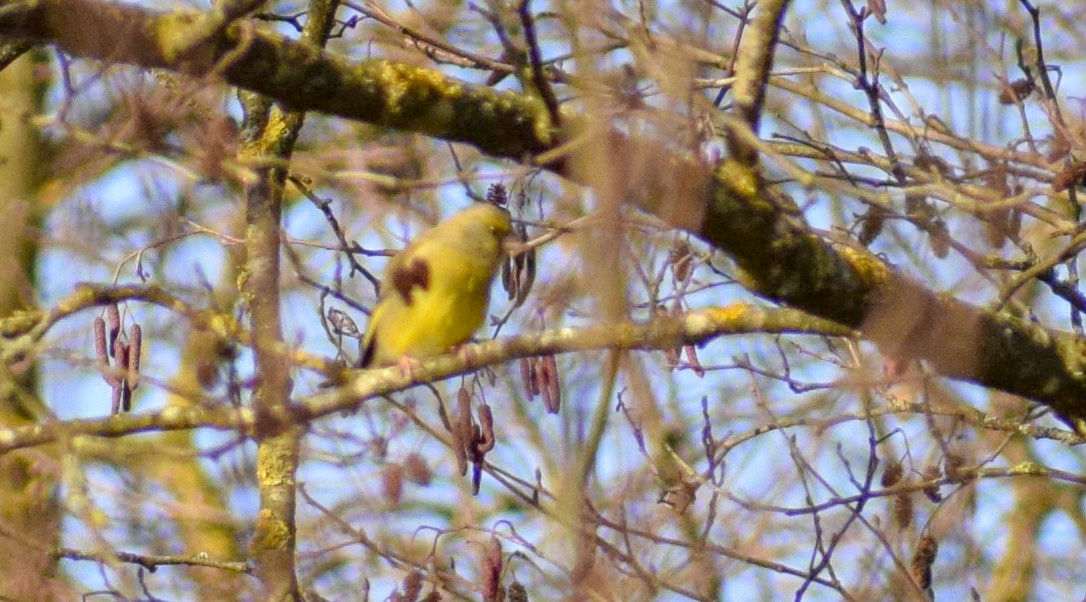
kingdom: Plantae
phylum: Tracheophyta
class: Liliopsida
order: Poales
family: Poaceae
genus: Chloris
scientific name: Chloris chloris
